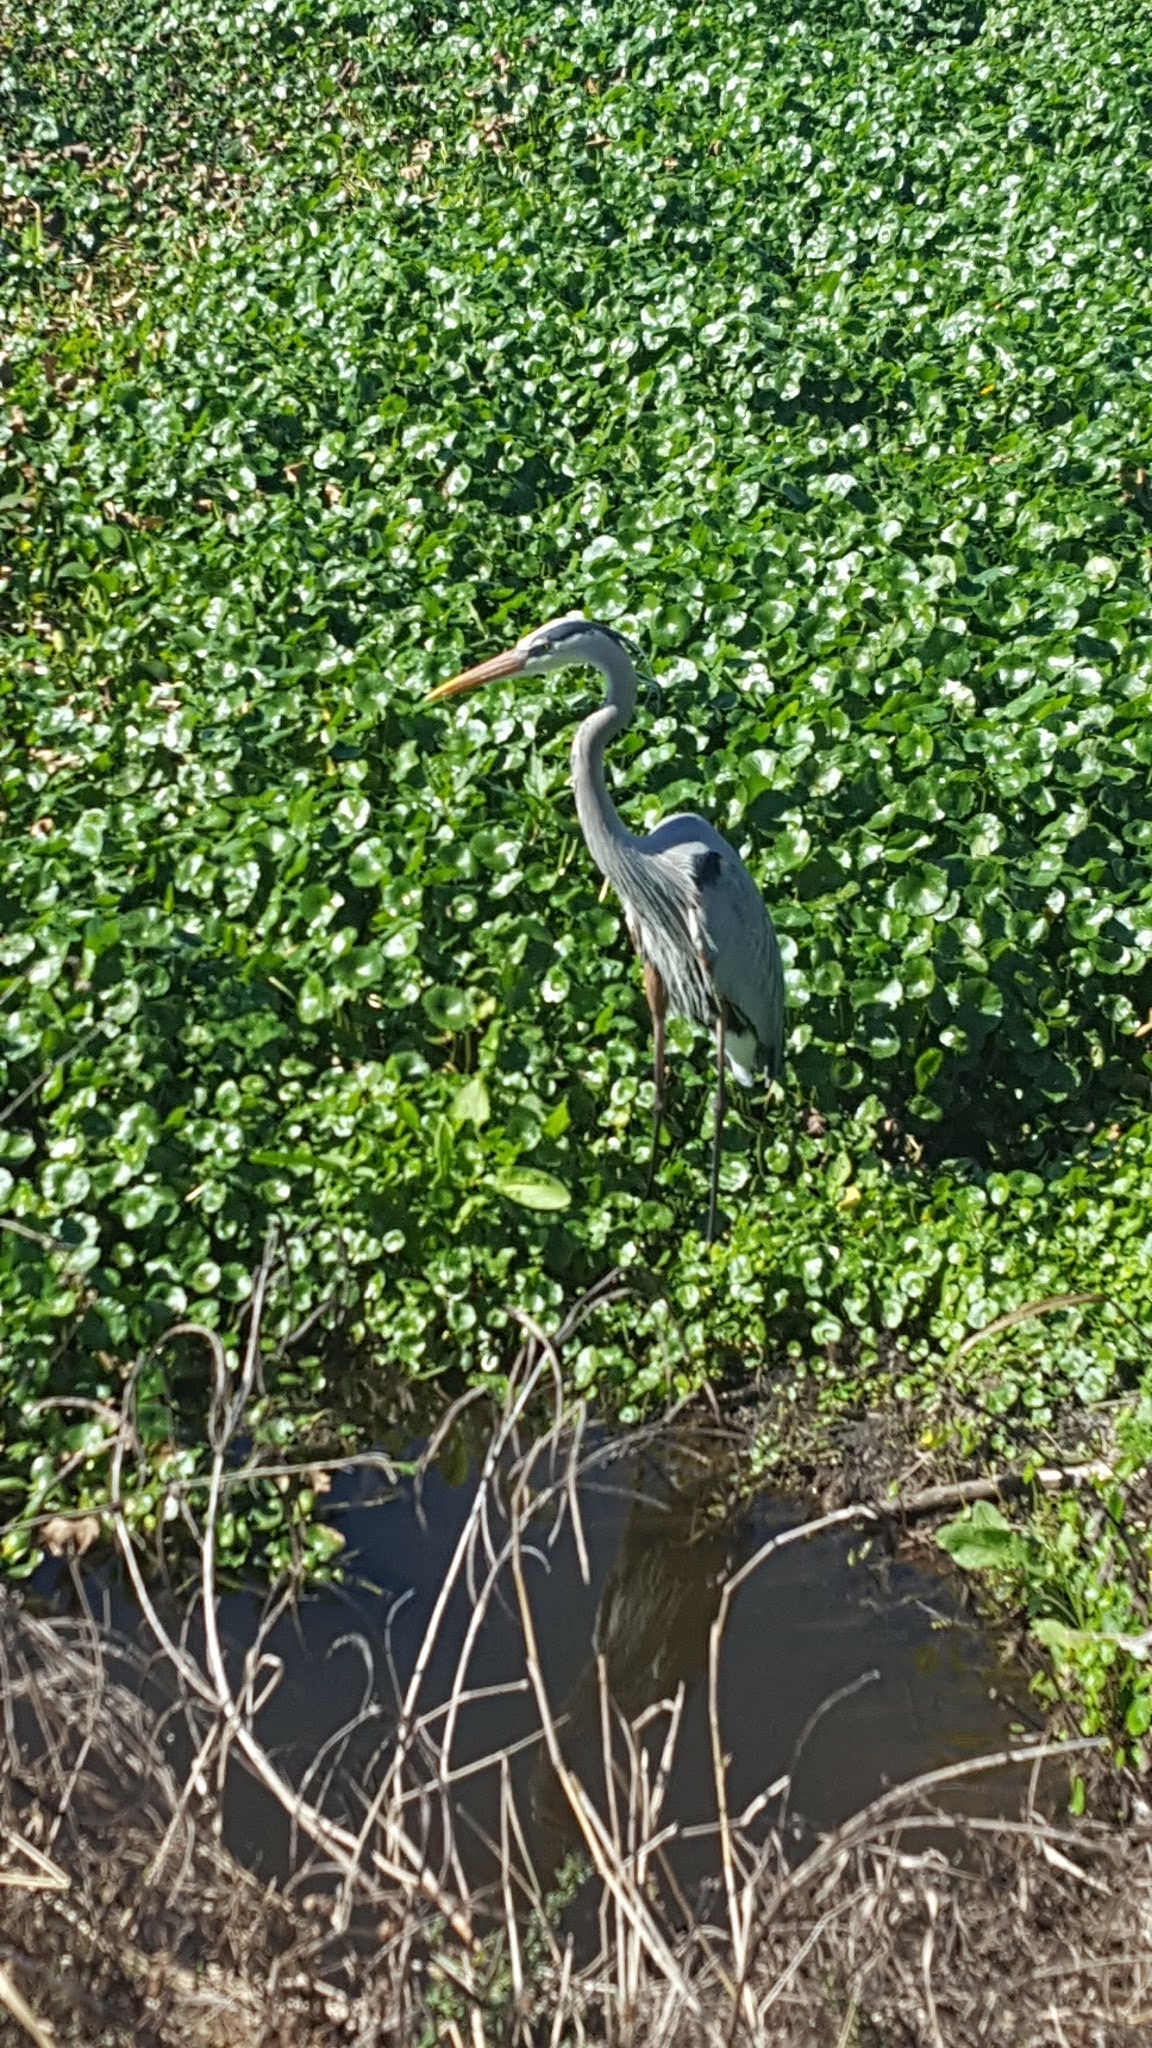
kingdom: Animalia
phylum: Chordata
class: Aves
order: Pelecaniformes
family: Ardeidae
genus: Ardea
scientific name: Ardea herodias
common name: Great blue heron
